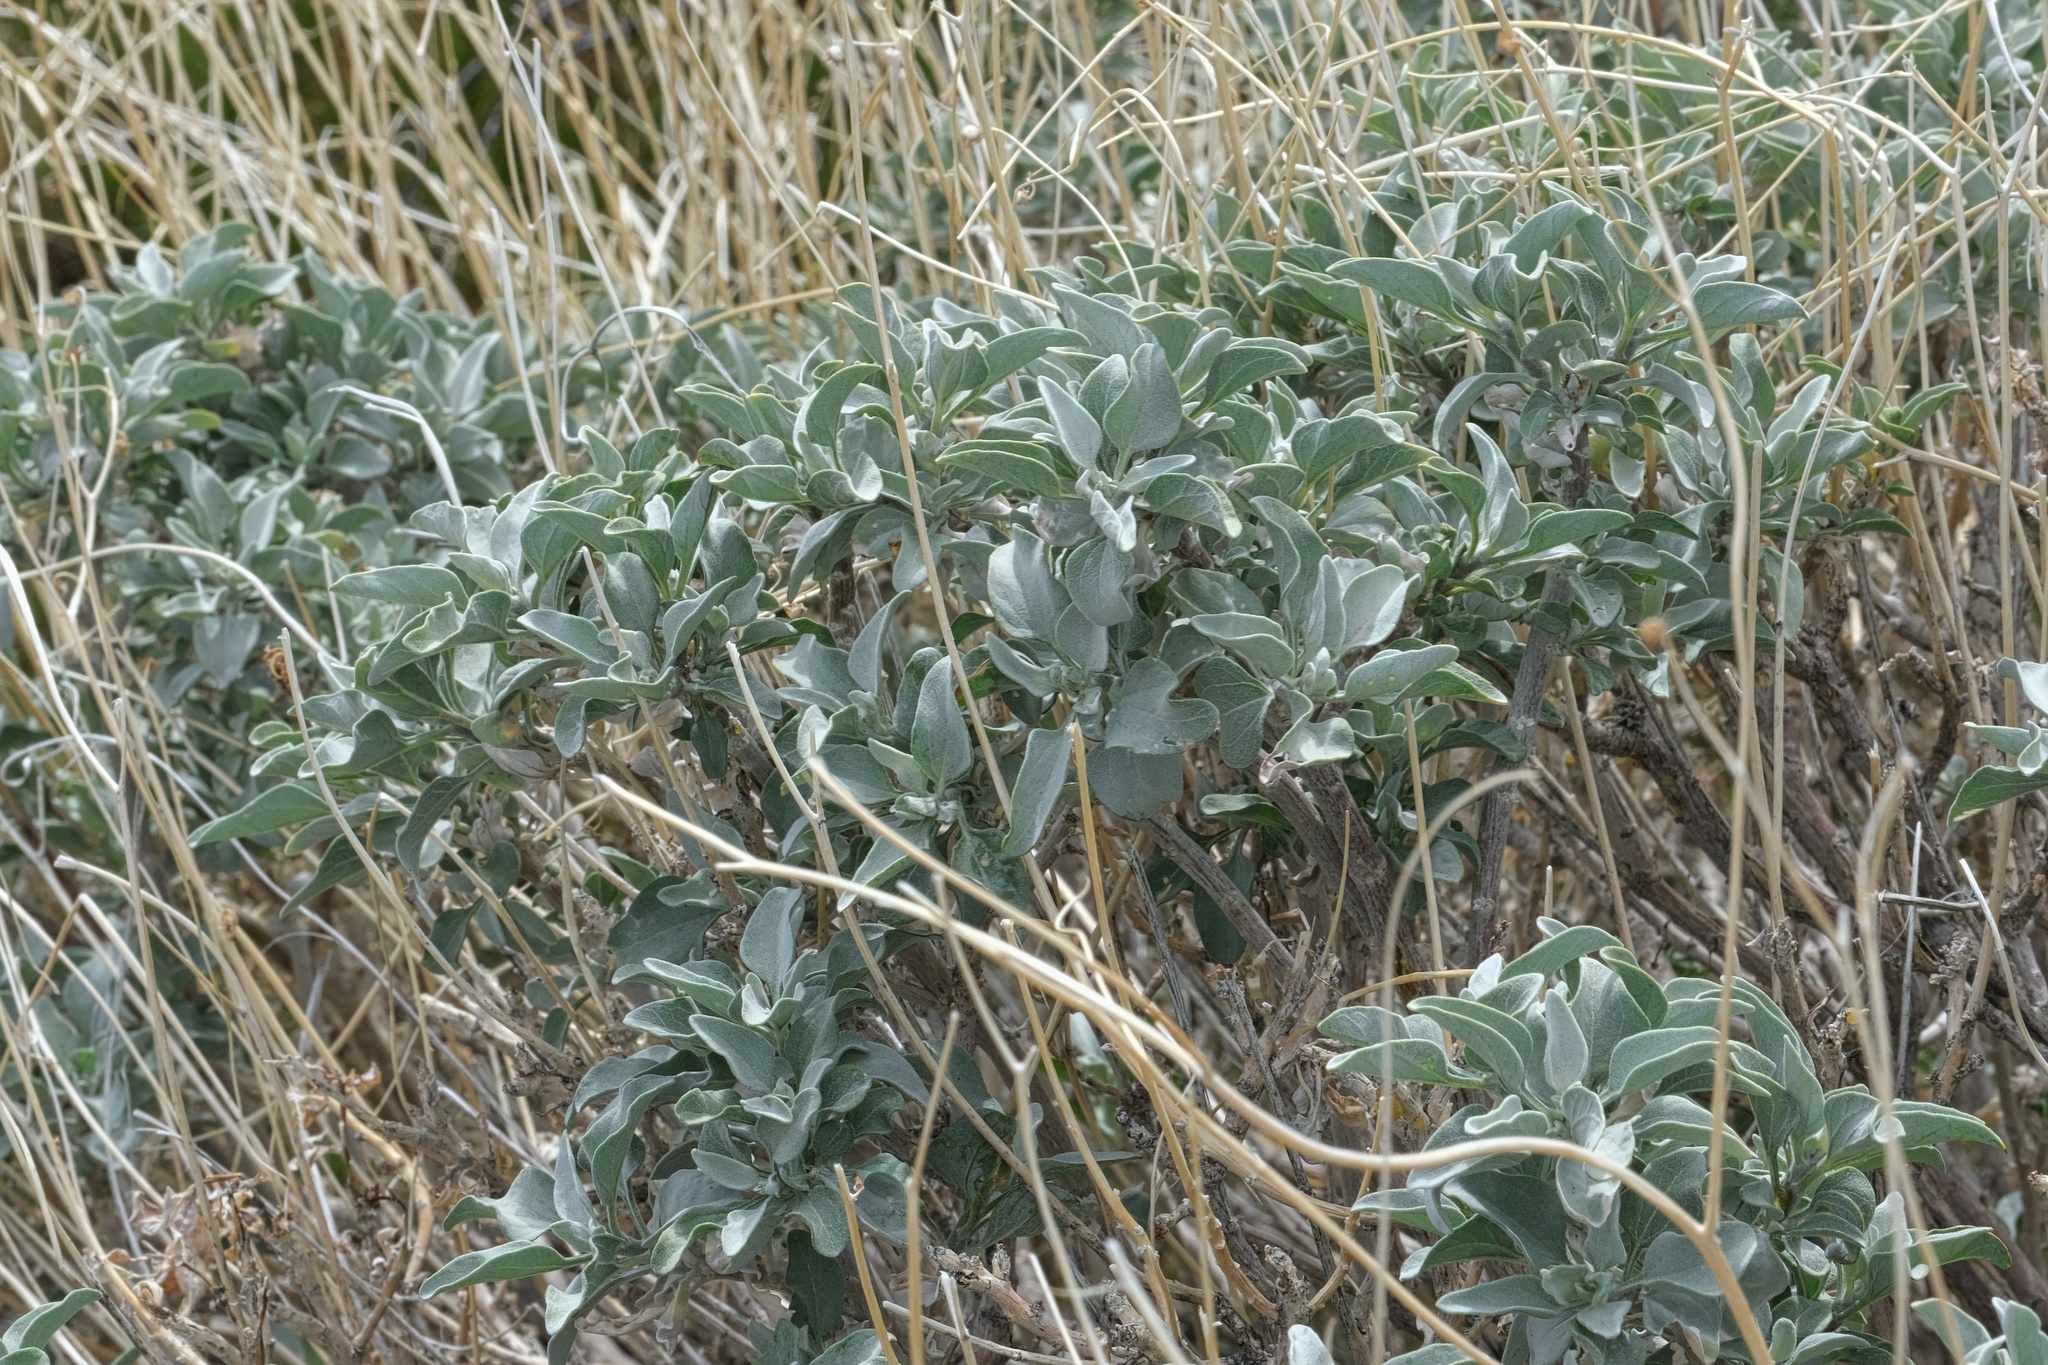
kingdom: Plantae
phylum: Tracheophyta
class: Magnoliopsida
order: Asterales
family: Asteraceae
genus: Encelia
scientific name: Encelia farinosa
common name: Brittlebush
